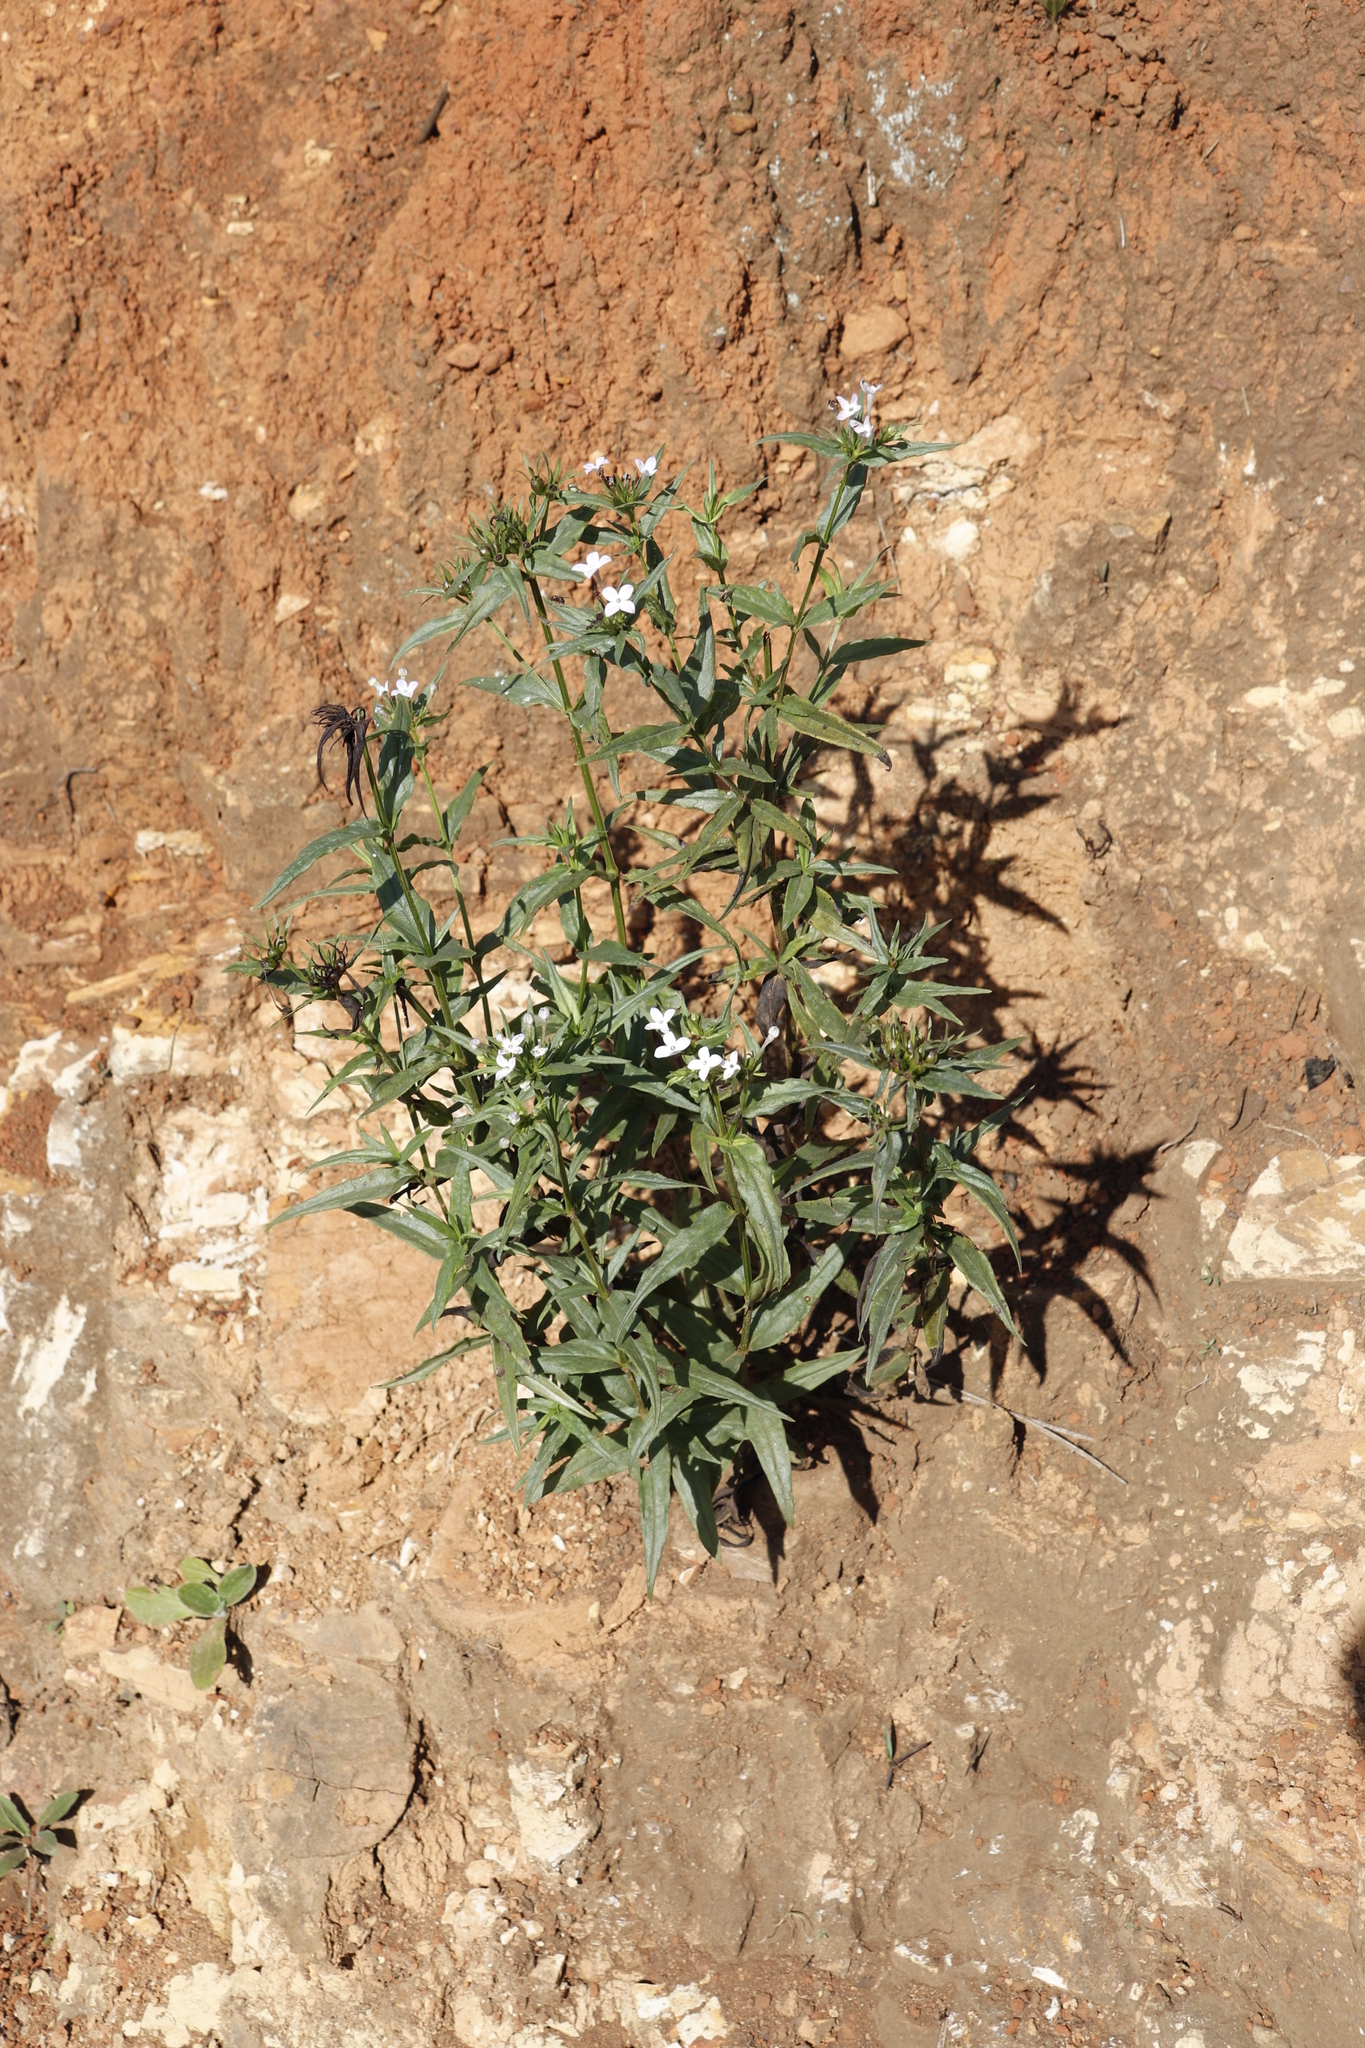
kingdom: Plantae
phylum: Tracheophyta
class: Magnoliopsida
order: Gentianales
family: Rubiaceae
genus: Conostomium
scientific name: Conostomium natalense
